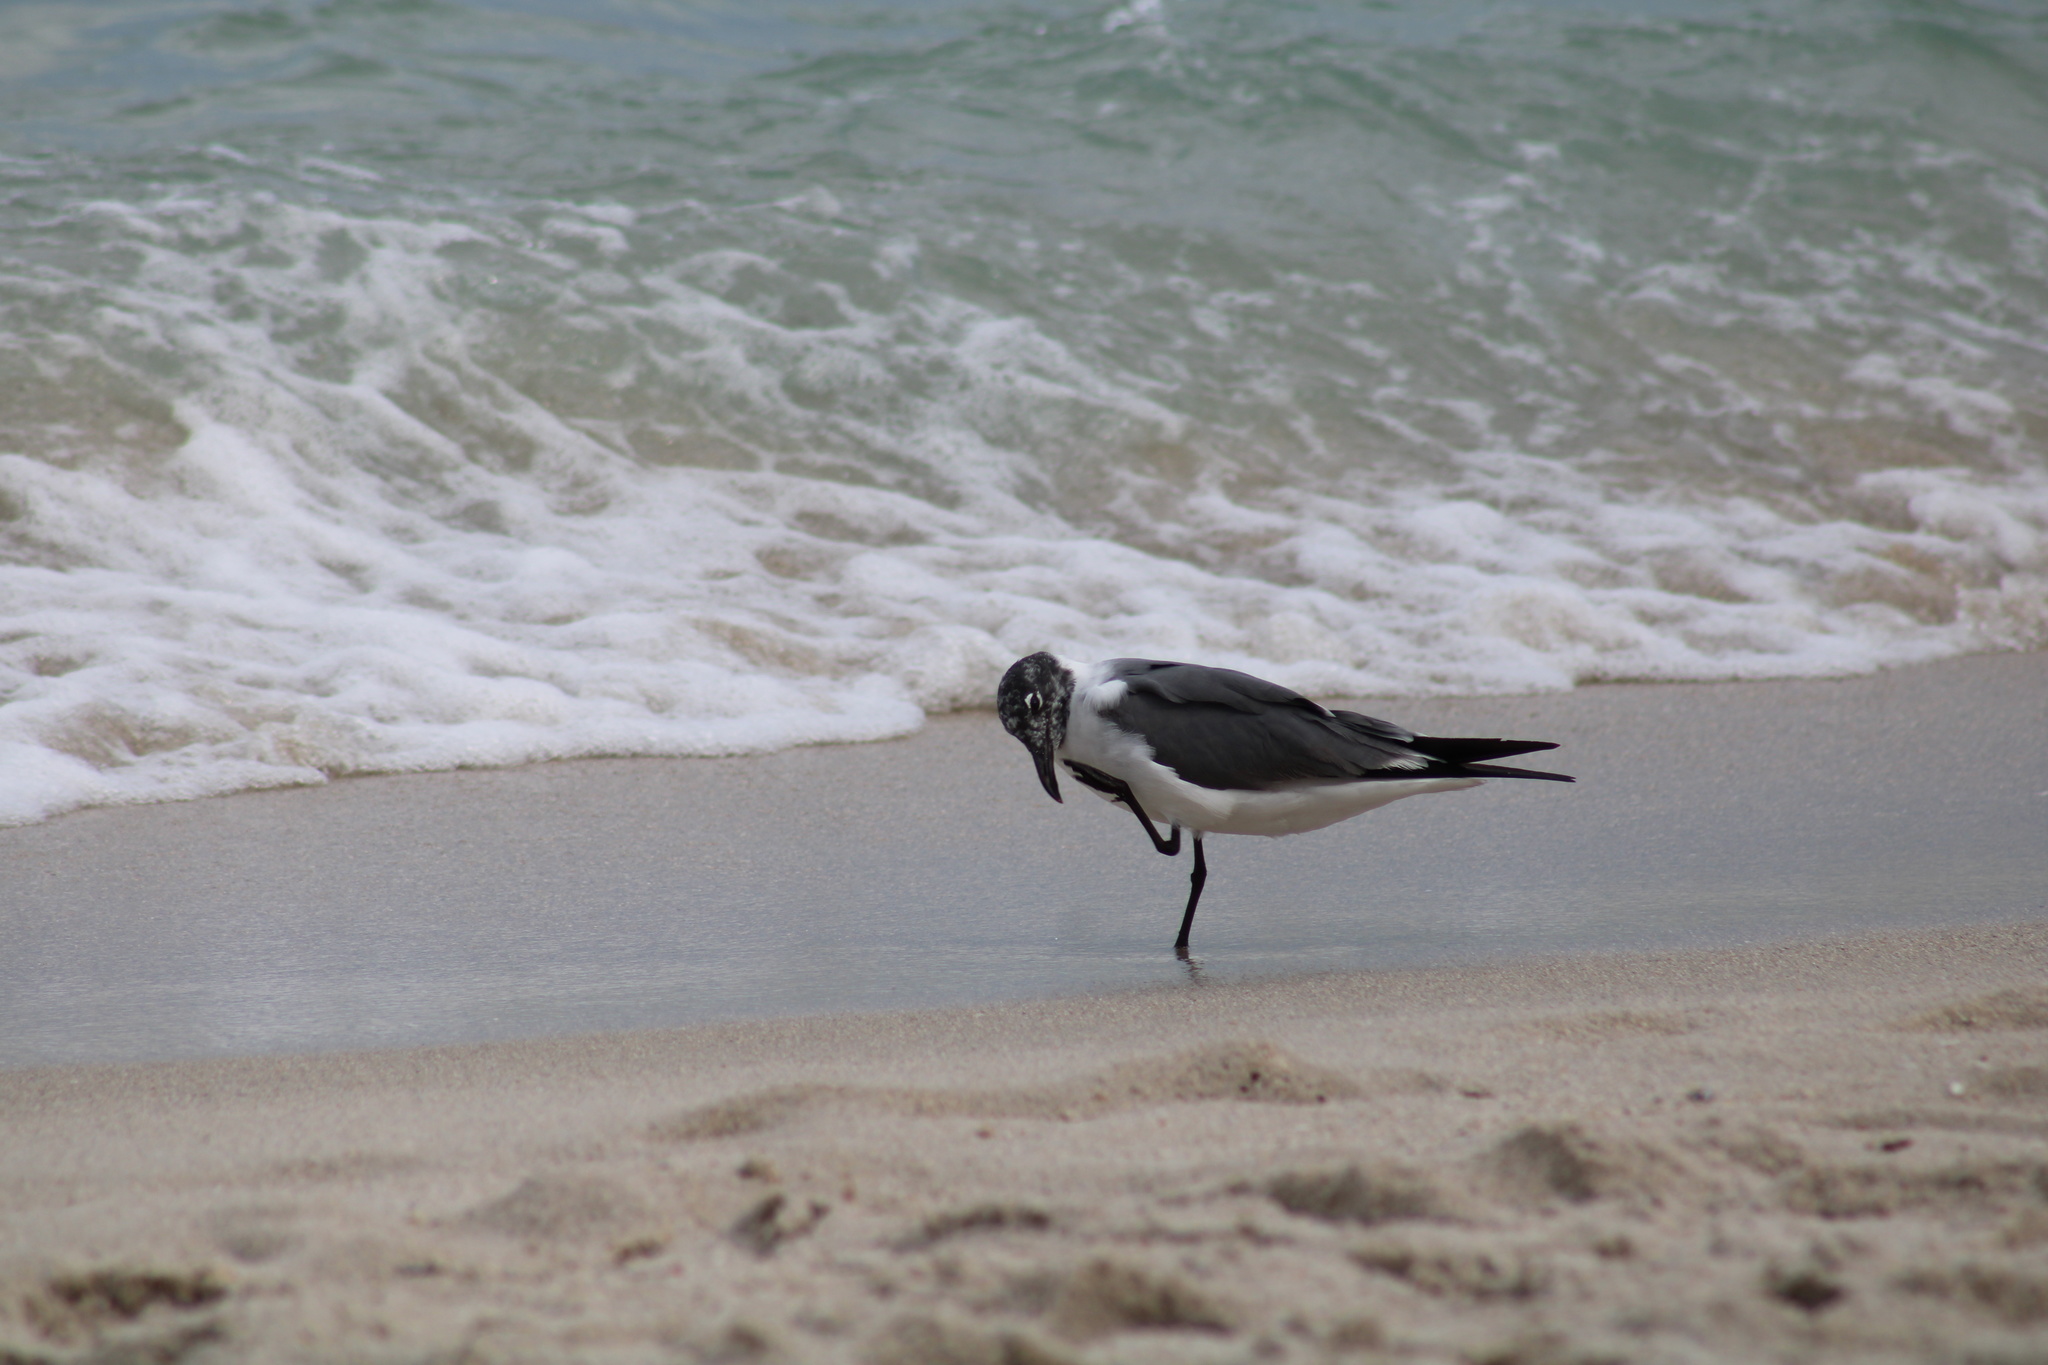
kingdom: Animalia
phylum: Chordata
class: Aves
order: Charadriiformes
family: Laridae
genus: Leucophaeus
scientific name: Leucophaeus atricilla
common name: Laughing gull
